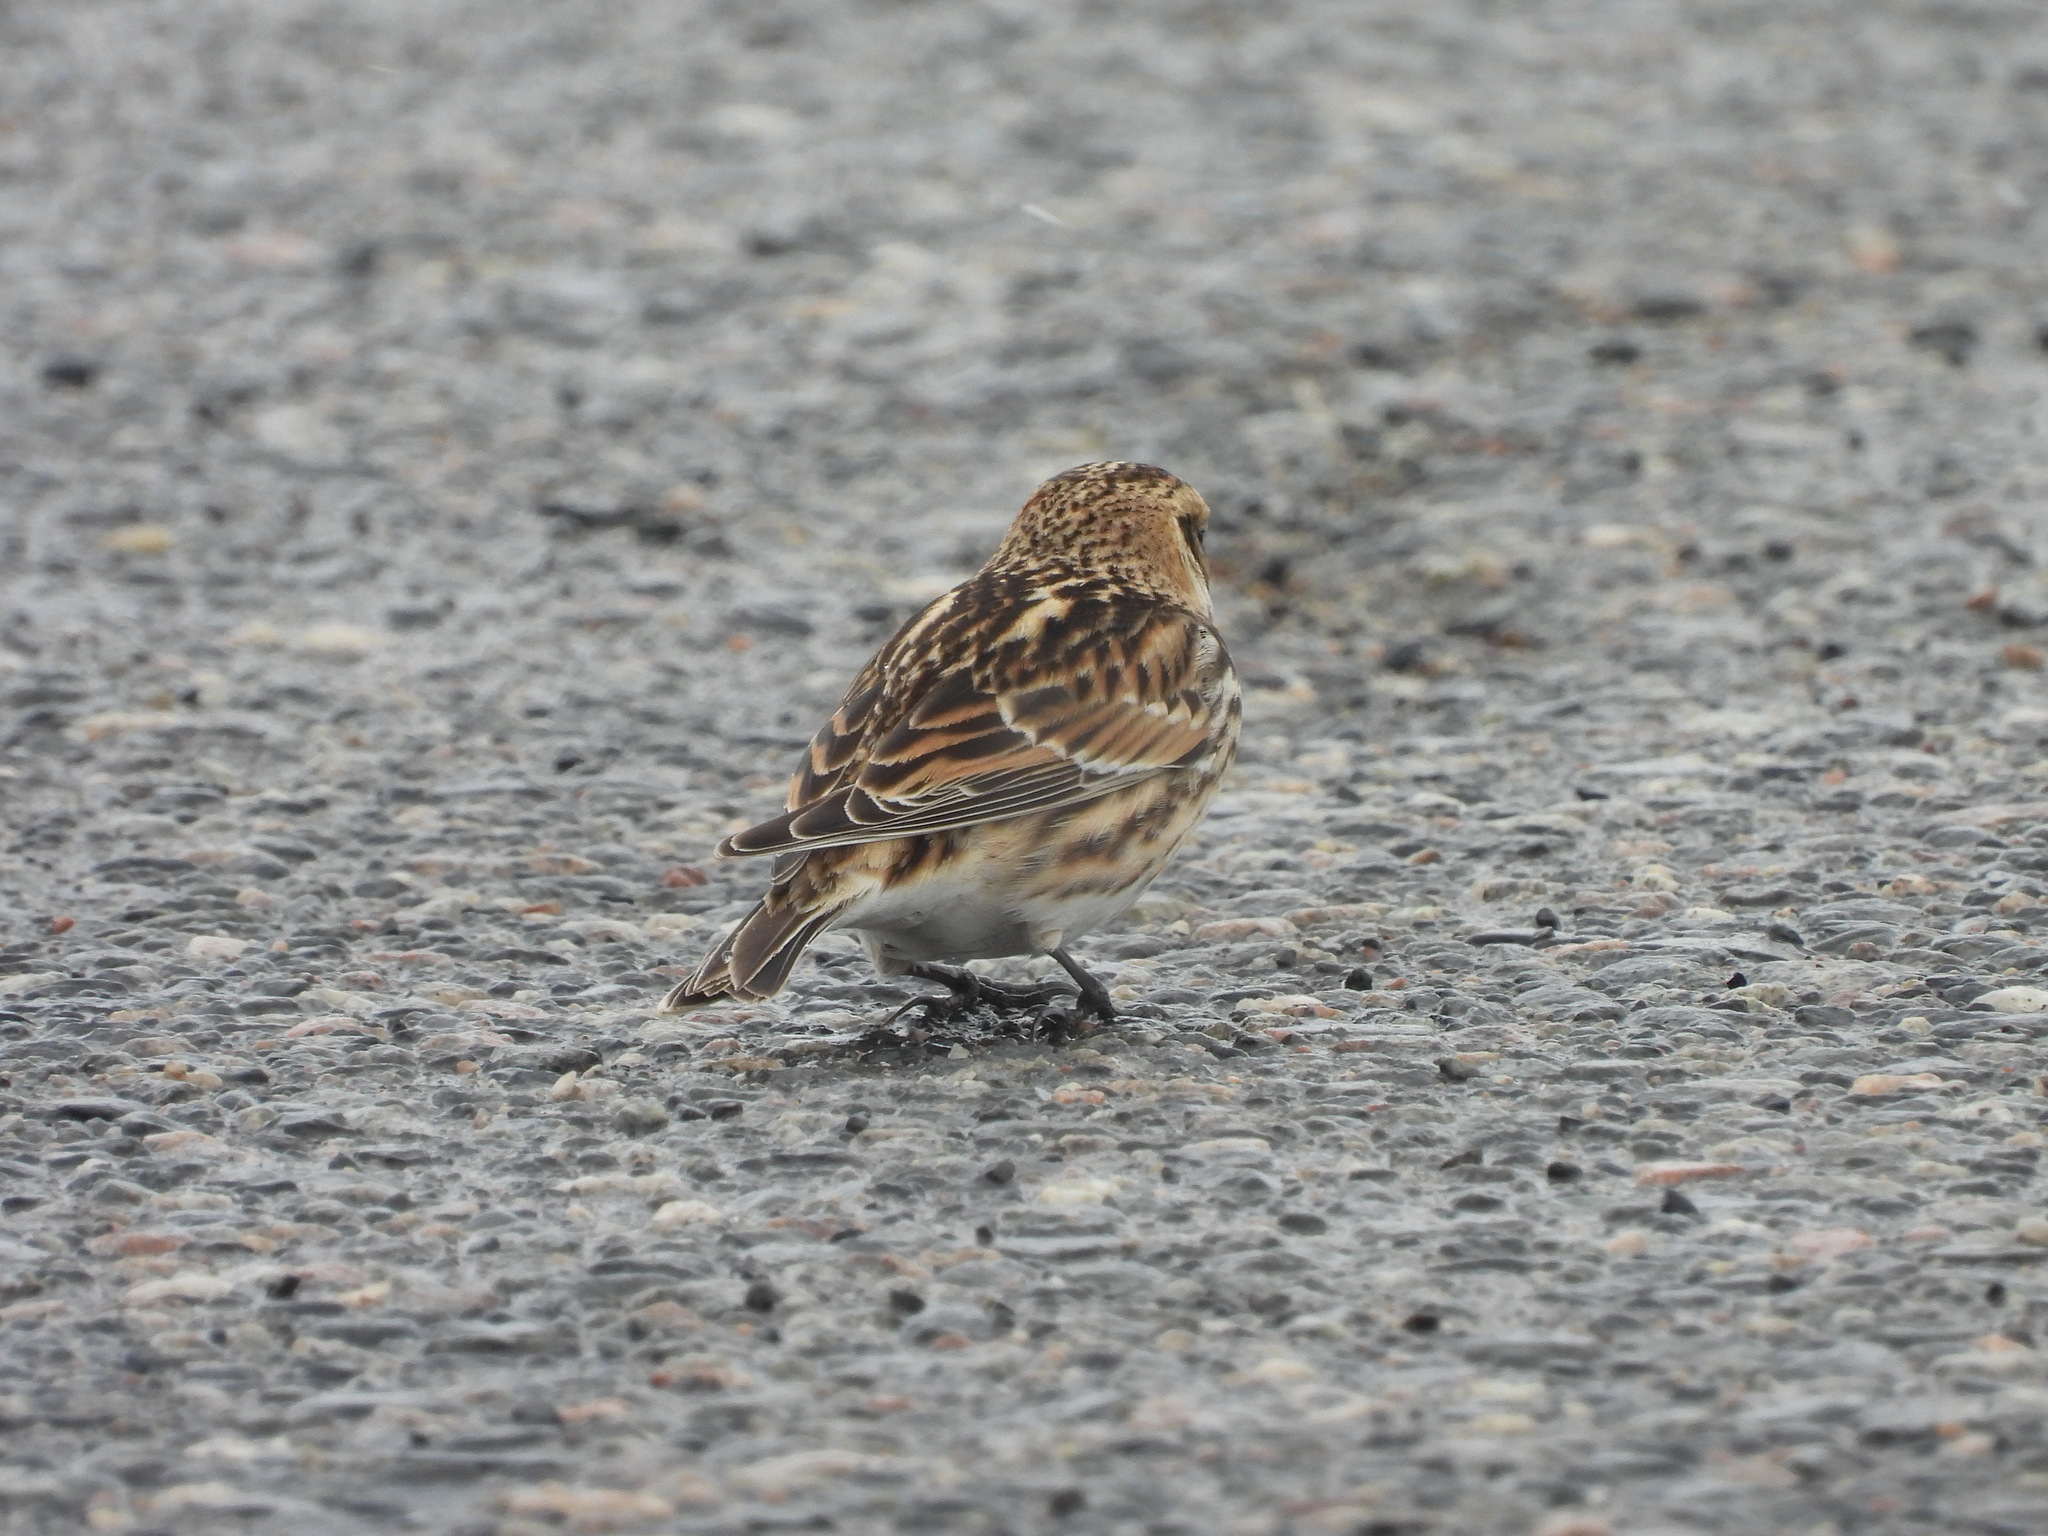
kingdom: Animalia
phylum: Chordata
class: Aves
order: Passeriformes
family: Calcariidae
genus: Calcarius
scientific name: Calcarius lapponicus
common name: Lapland longspur
